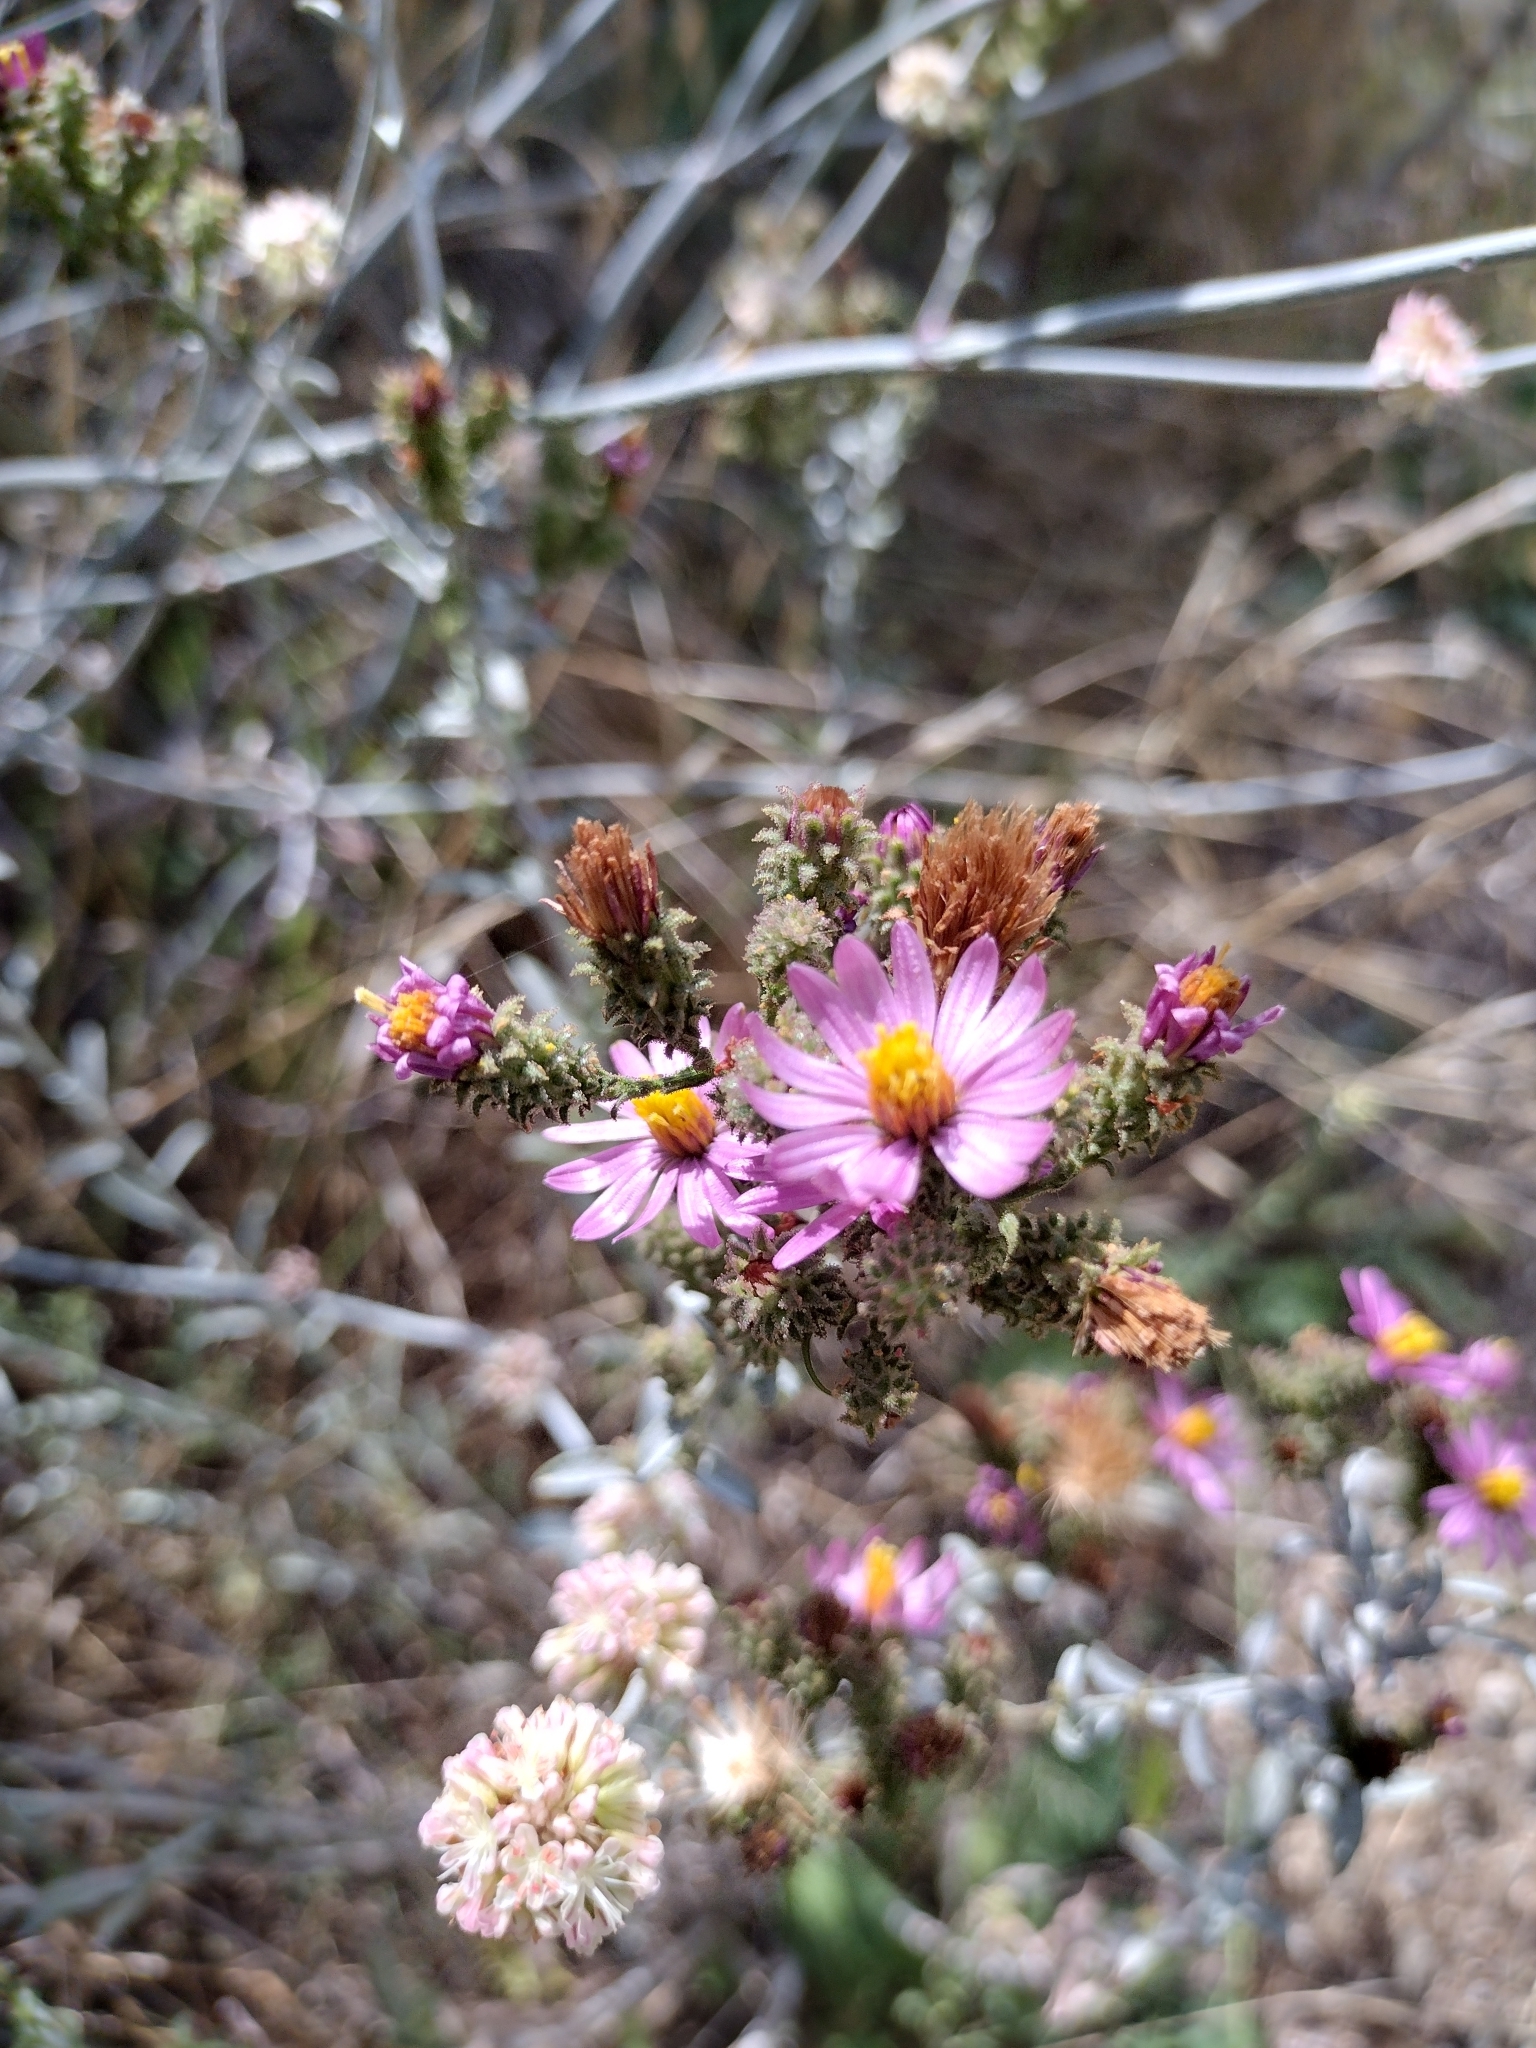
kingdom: Plantae
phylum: Tracheophyta
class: Magnoliopsida
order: Asterales
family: Asteraceae
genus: Corethrogyne
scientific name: Corethrogyne filaginifolia
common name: Sand-aster
